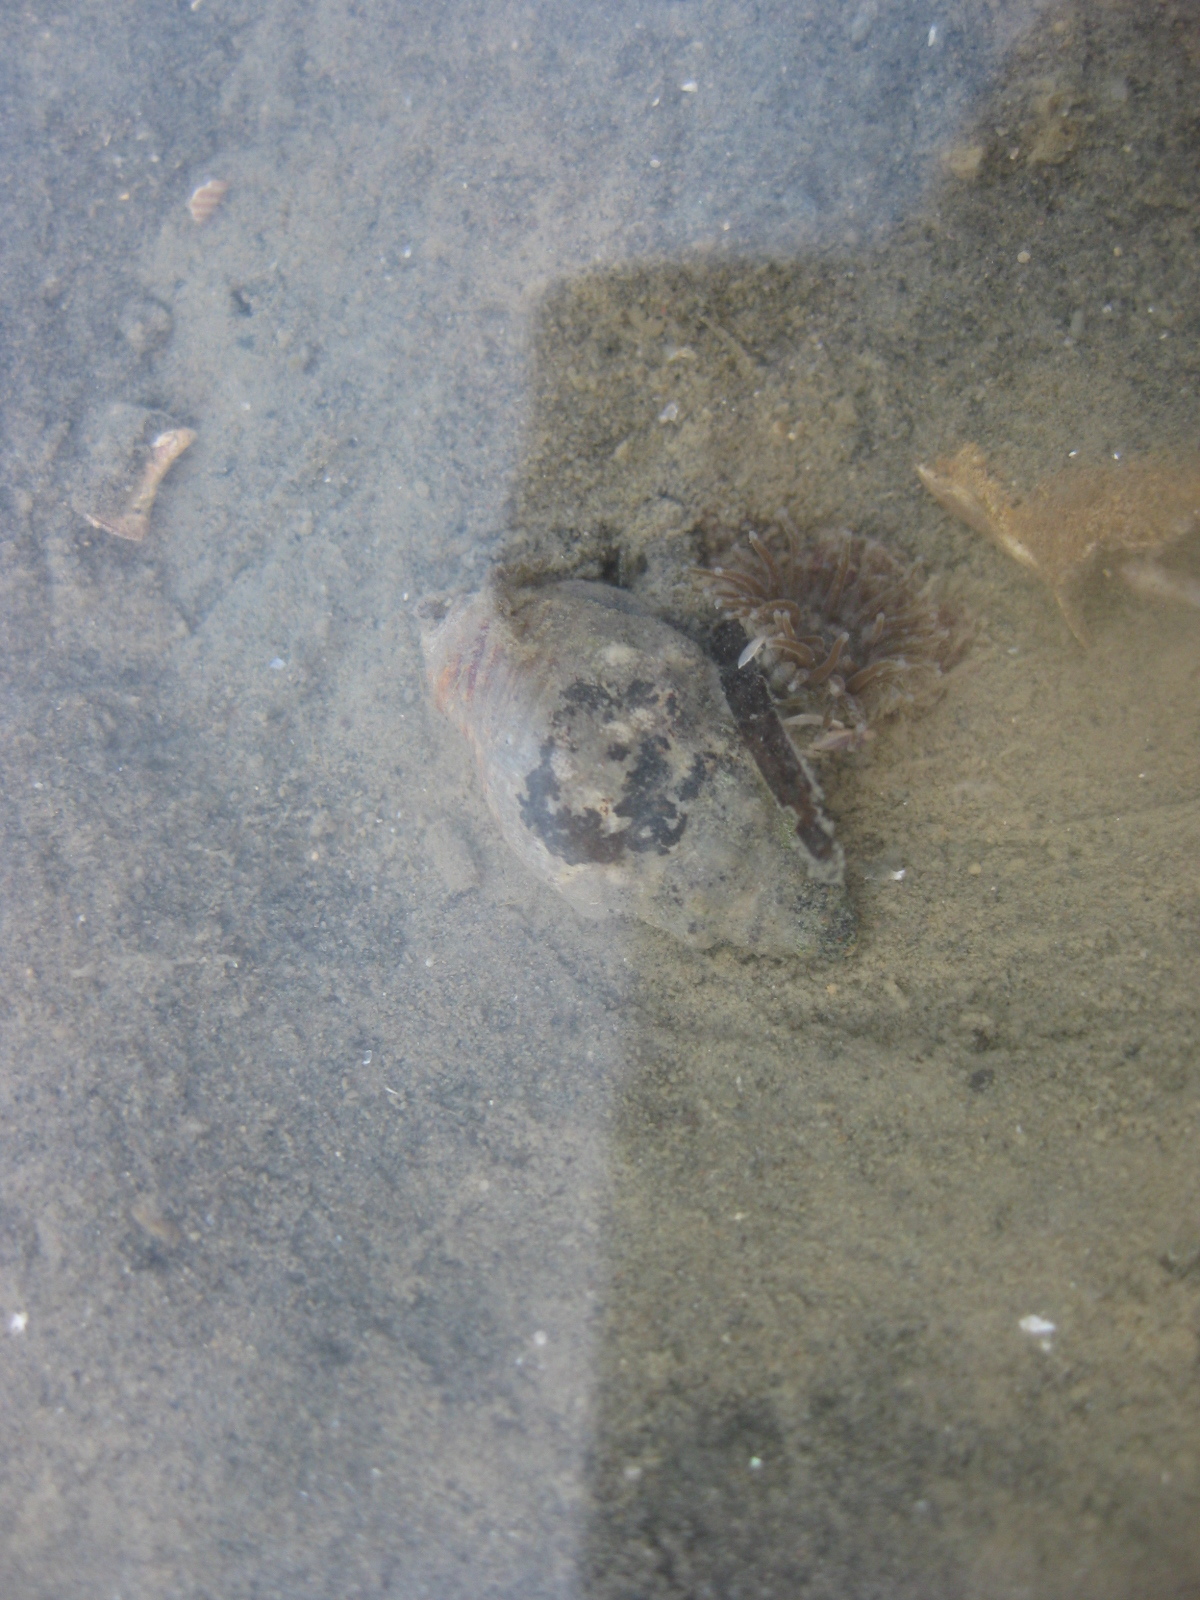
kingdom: Animalia
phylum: Mollusca
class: Gastropoda
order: Neogastropoda
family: Cominellidae
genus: Cominella
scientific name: Cominella glandiformis
